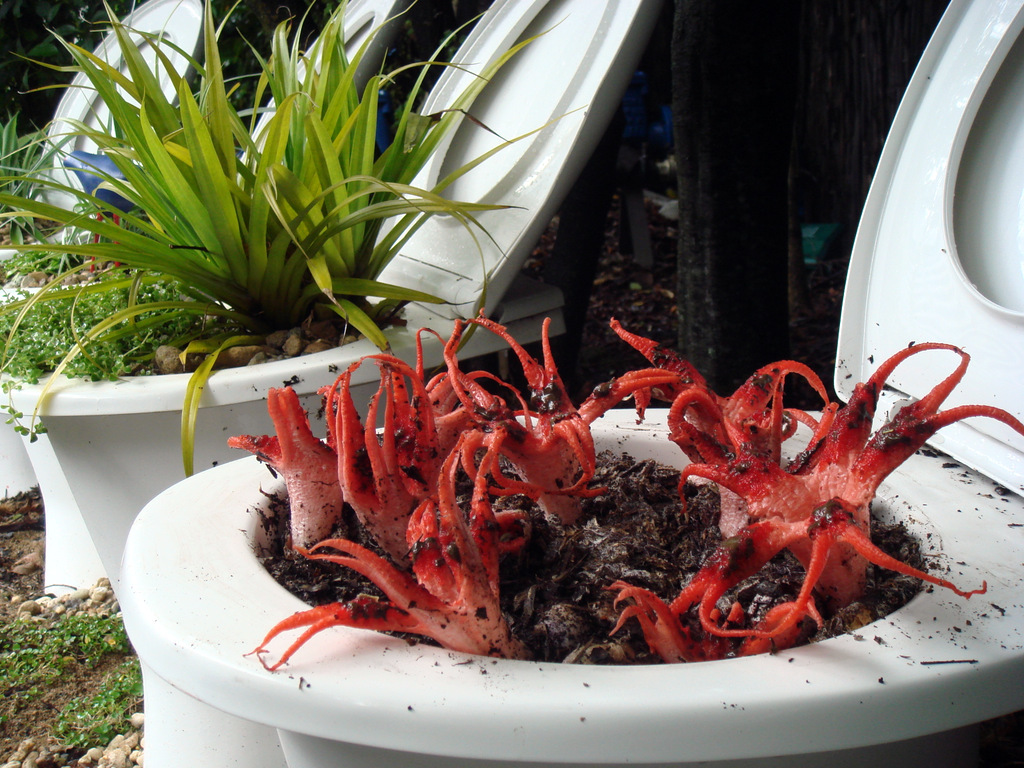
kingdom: Fungi
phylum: Basidiomycota
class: Agaricomycetes
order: Phallales
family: Phallaceae
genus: Clathrus
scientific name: Clathrus archeri
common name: Devil's fingers
